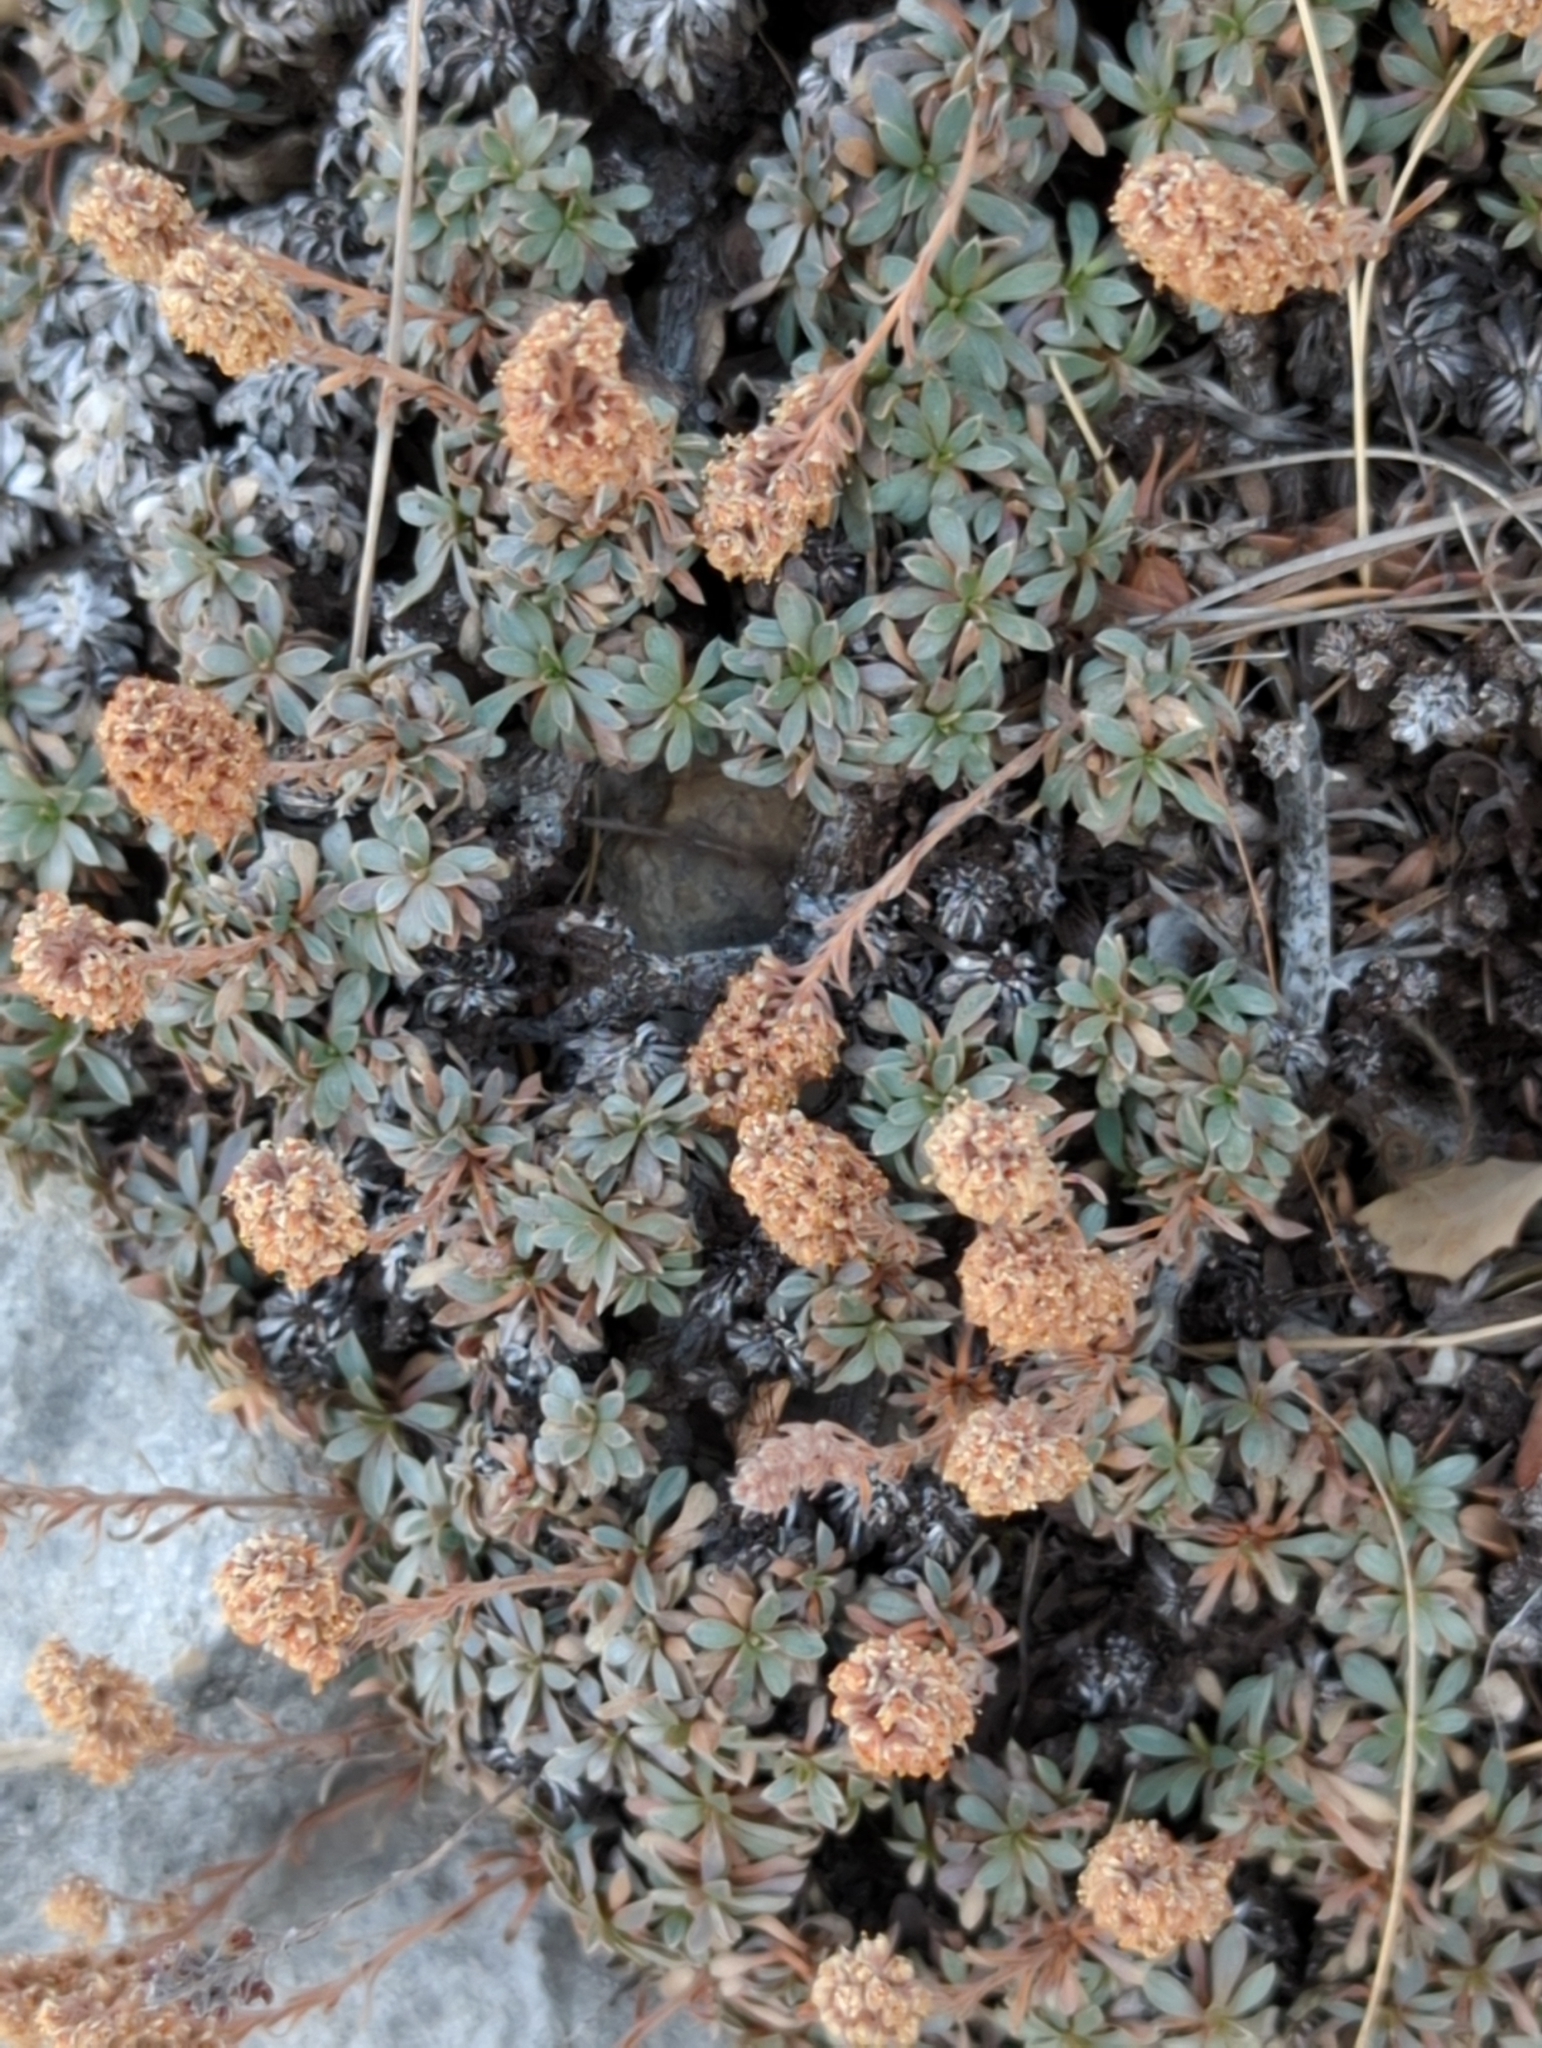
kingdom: Plantae
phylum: Tracheophyta
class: Magnoliopsida
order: Rosales
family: Rosaceae
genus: Petrophytum
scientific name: Petrophytum caespitosum
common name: Mat rockspirea
